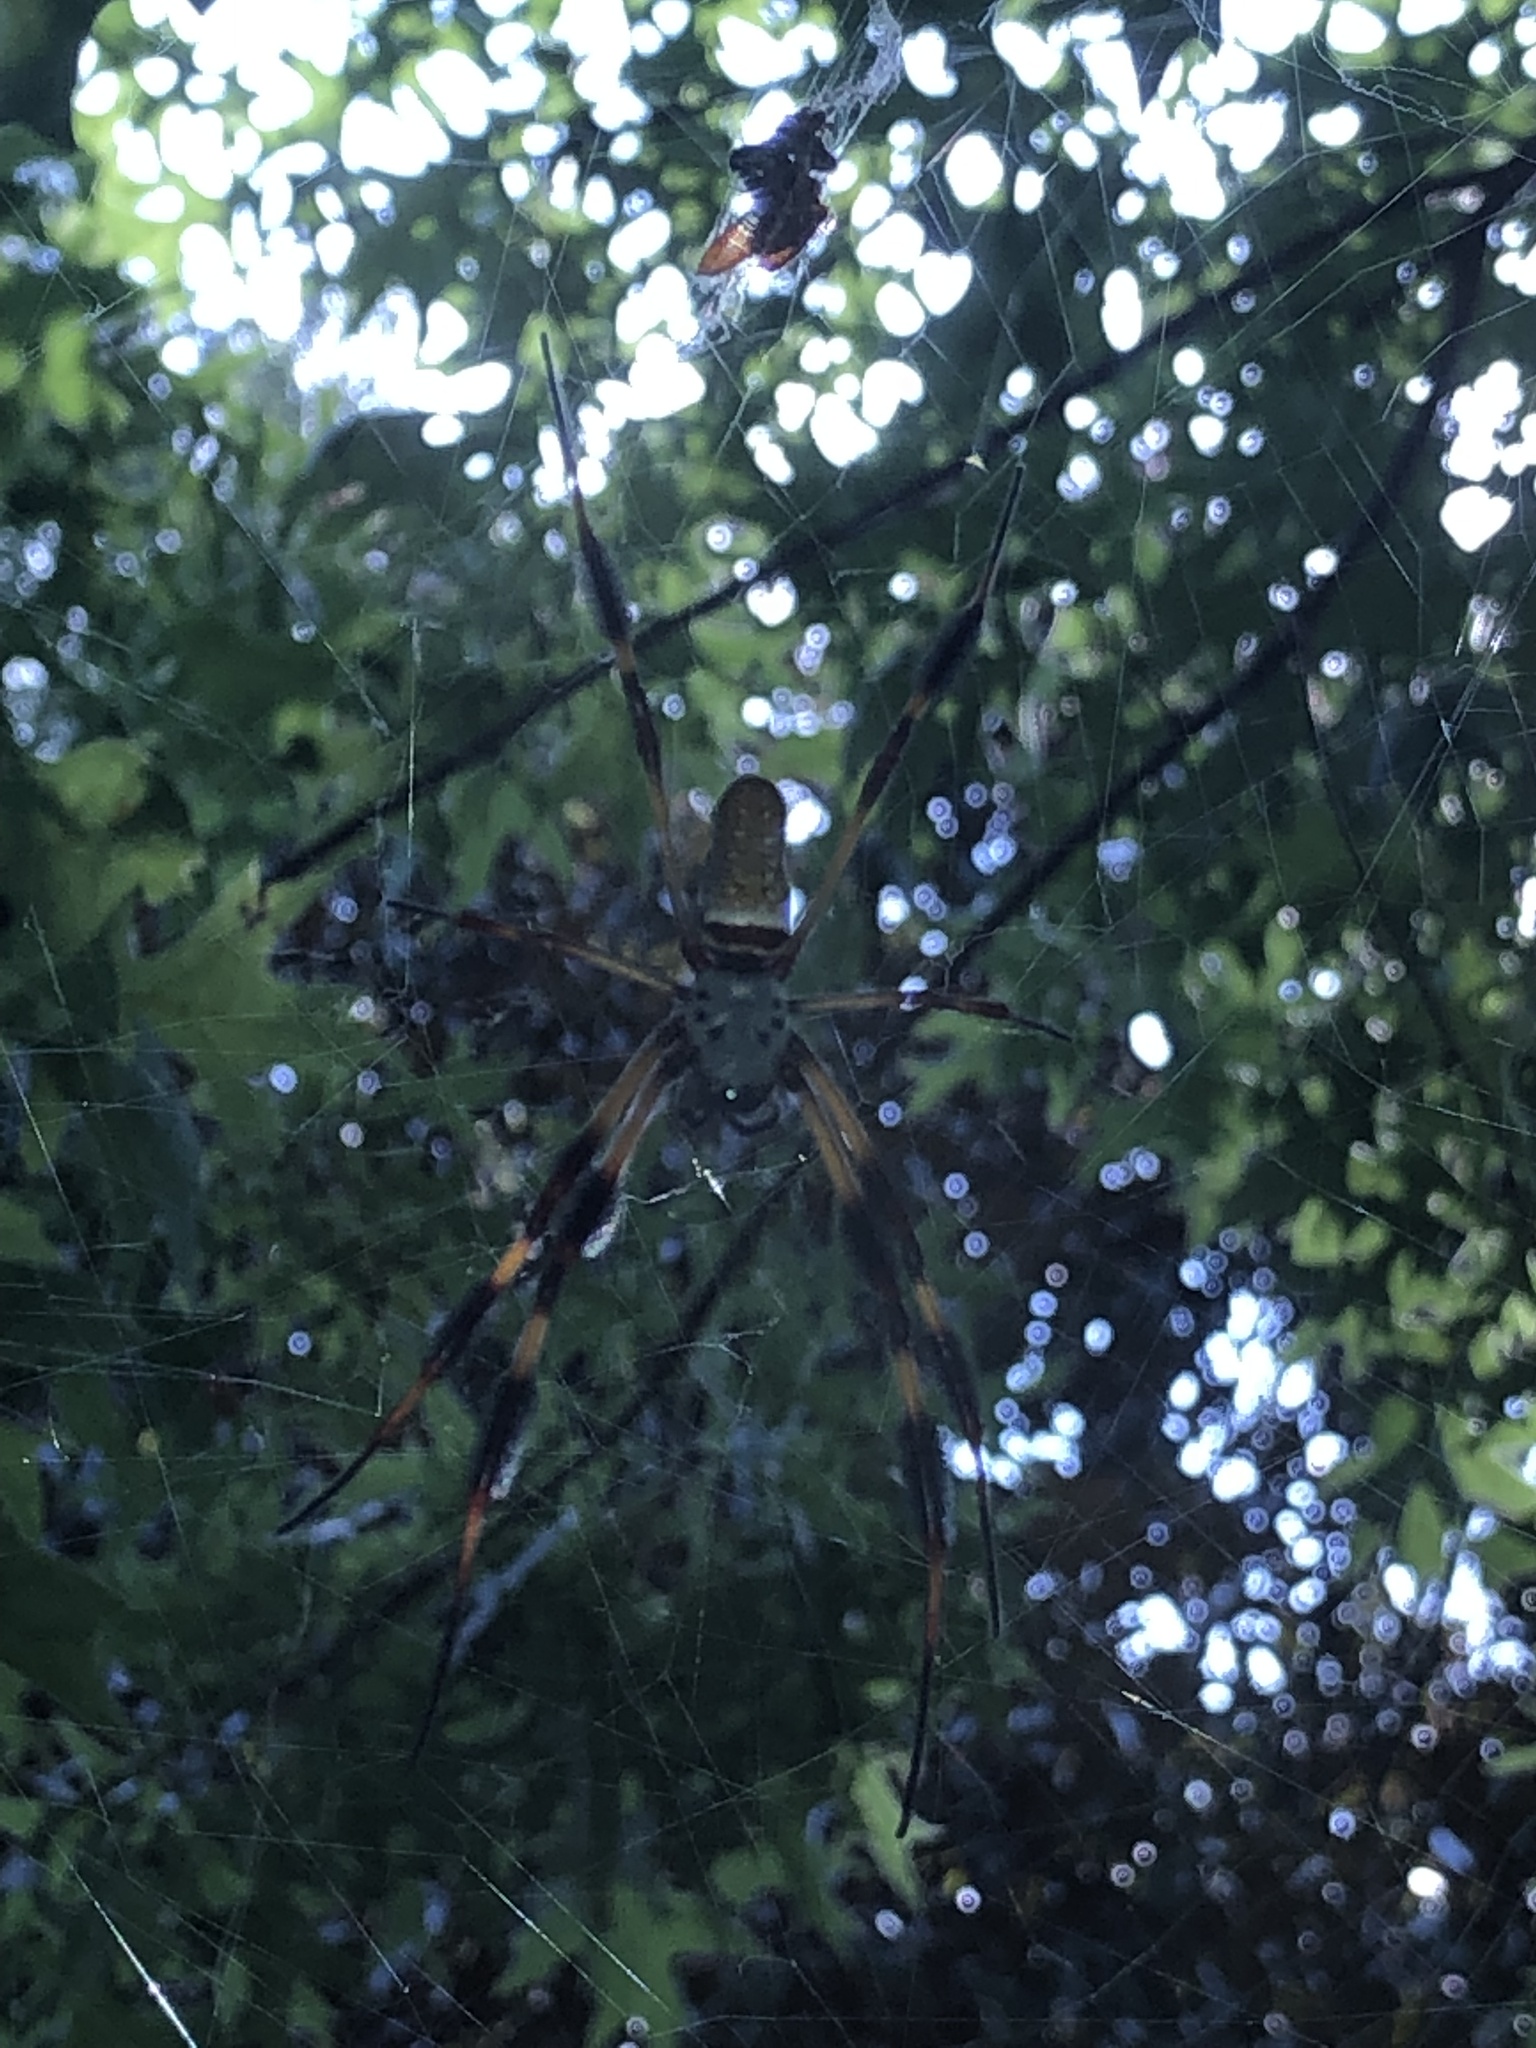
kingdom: Animalia
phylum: Arthropoda
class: Arachnida
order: Araneae
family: Araneidae
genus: Trichonephila
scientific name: Trichonephila clavipes
